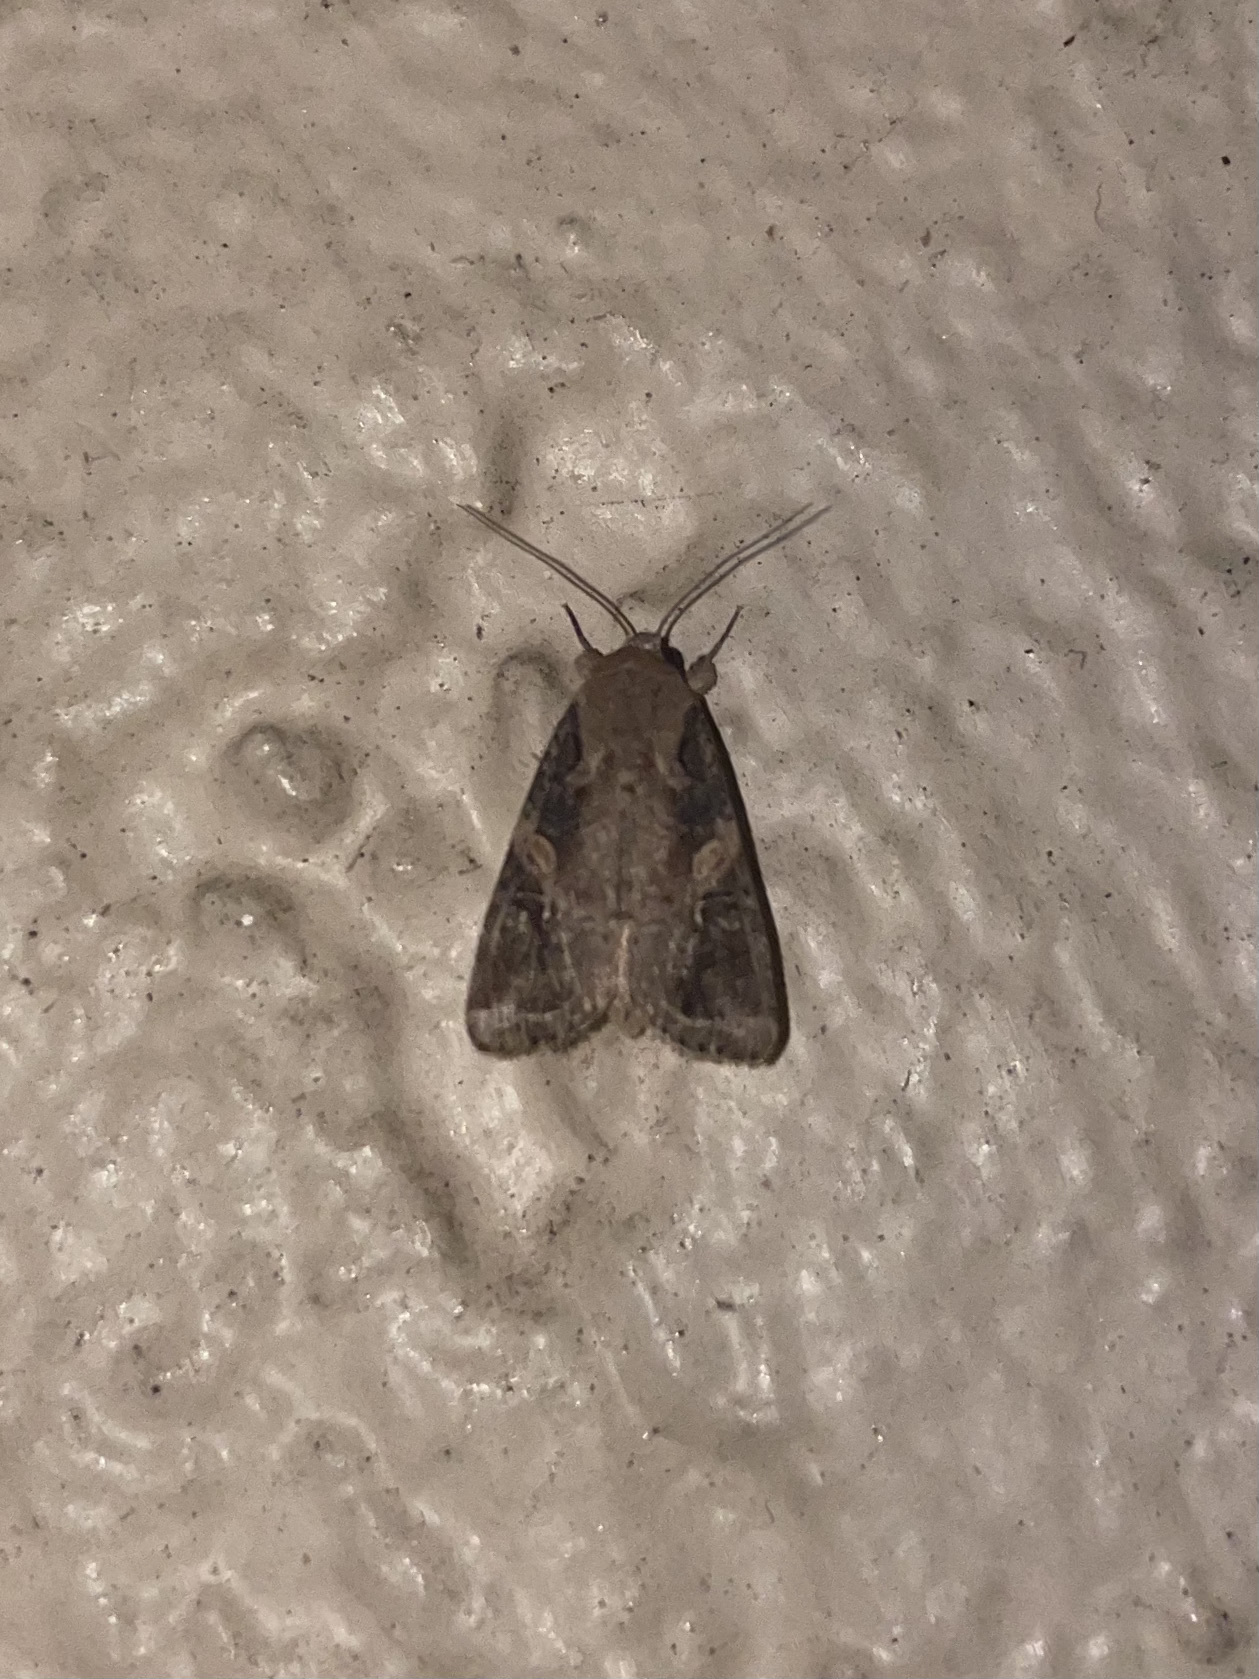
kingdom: Animalia
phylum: Arthropoda
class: Insecta
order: Lepidoptera
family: Noctuidae
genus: Spodoptera
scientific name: Spodoptera frugiperda
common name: Fall armyworm
